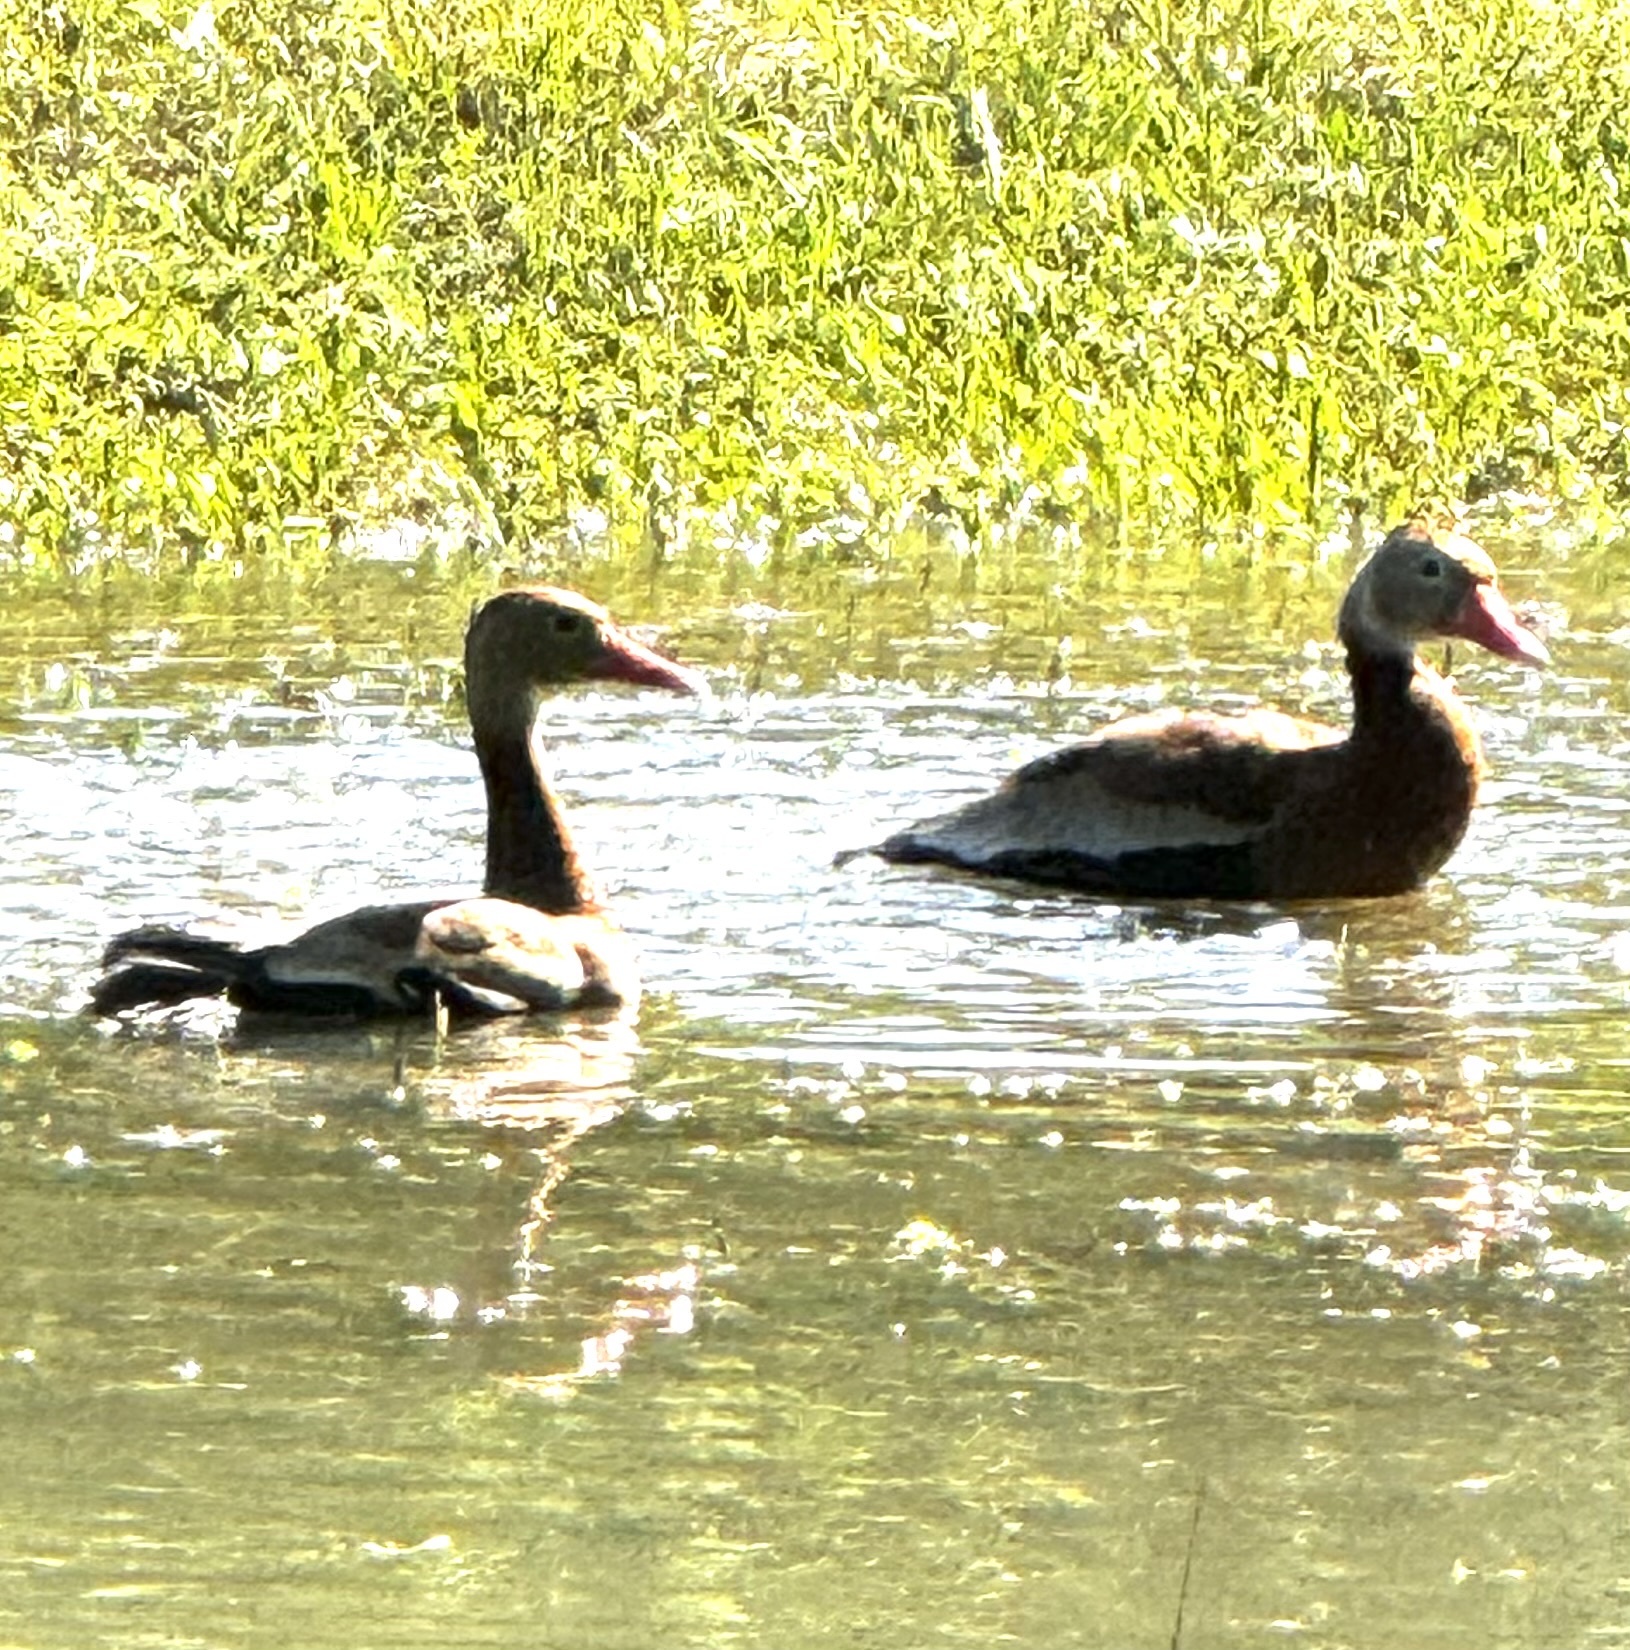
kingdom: Animalia
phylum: Chordata
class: Aves
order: Anseriformes
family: Anatidae
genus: Dendrocygna
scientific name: Dendrocygna autumnalis
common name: Black-bellied whistling duck
